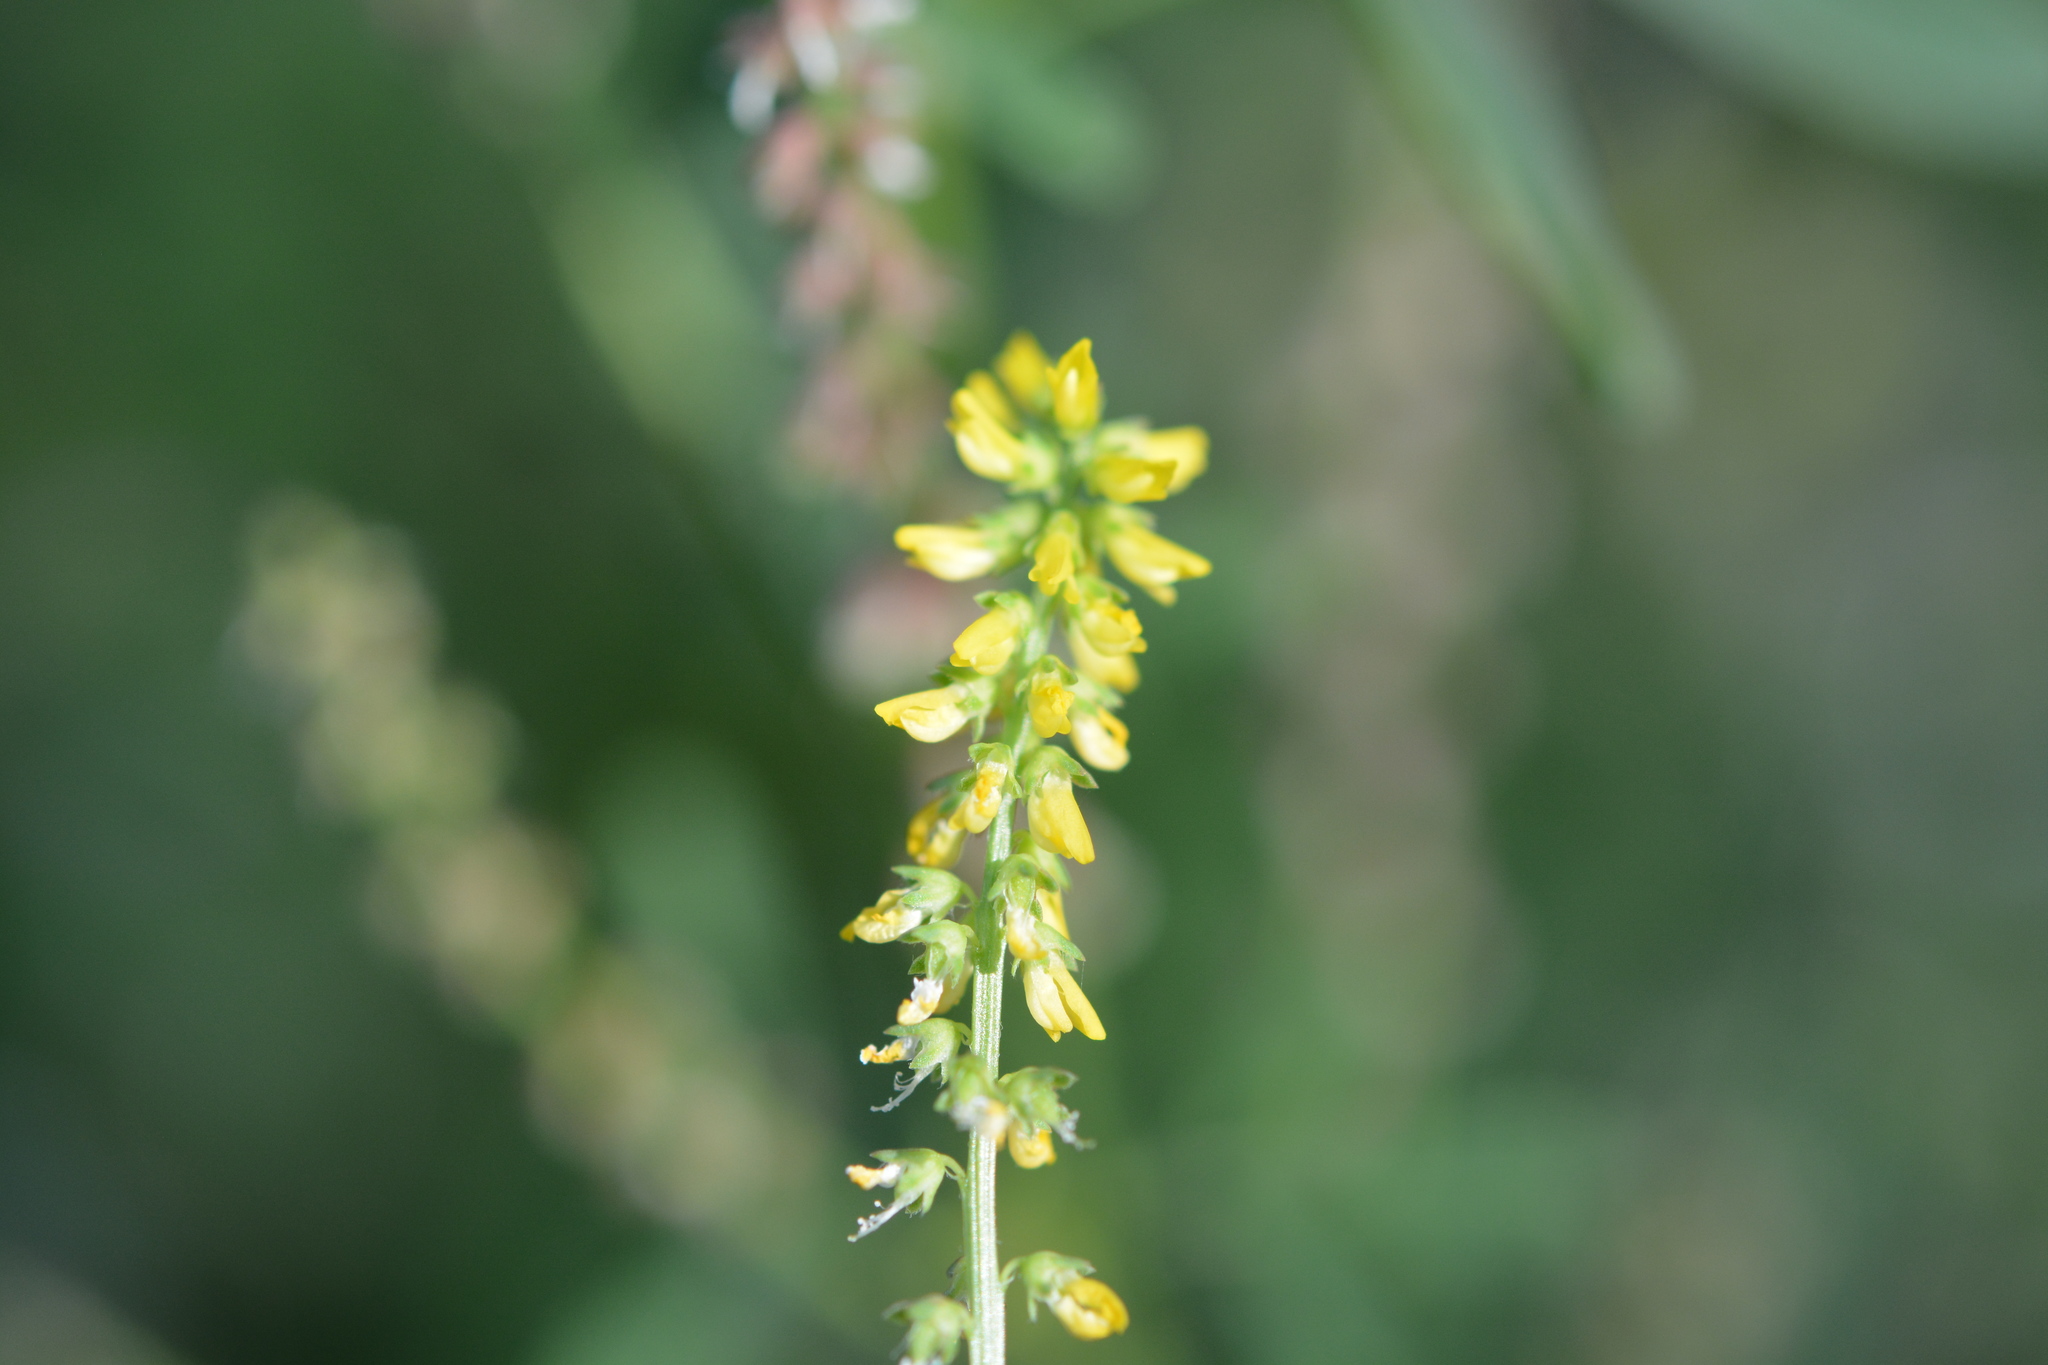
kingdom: Plantae
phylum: Tracheophyta
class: Magnoliopsida
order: Fabales
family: Fabaceae
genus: Melilotus
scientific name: Melilotus indicus
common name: Small melilot
